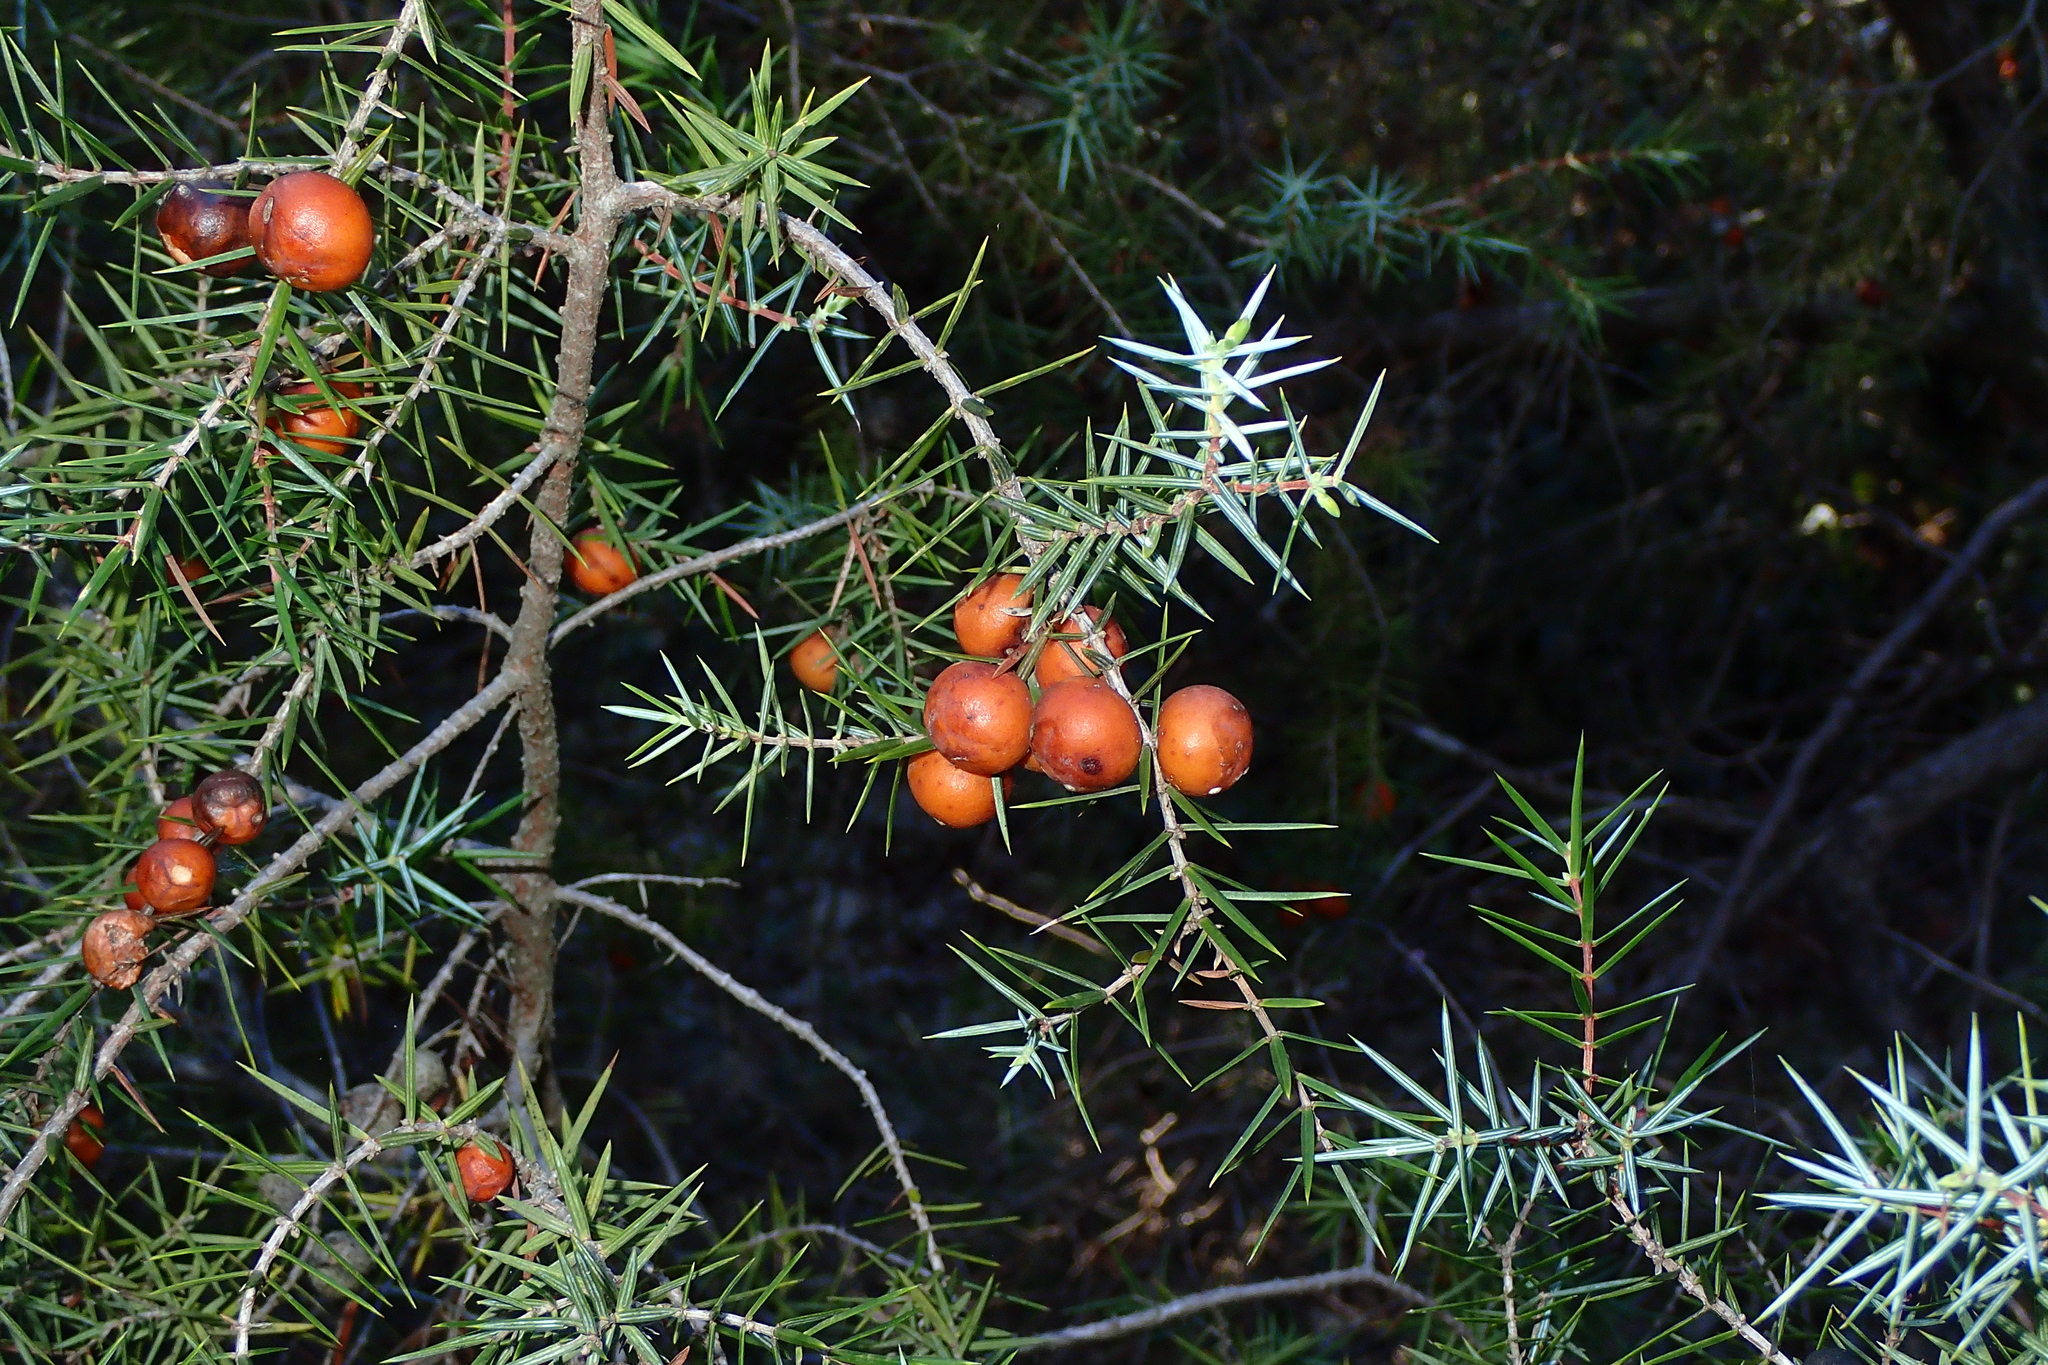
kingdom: Plantae
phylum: Tracheophyta
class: Pinopsida
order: Pinales
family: Cupressaceae
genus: Juniperus
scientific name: Juniperus oxycedrus
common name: Prickly juniper
